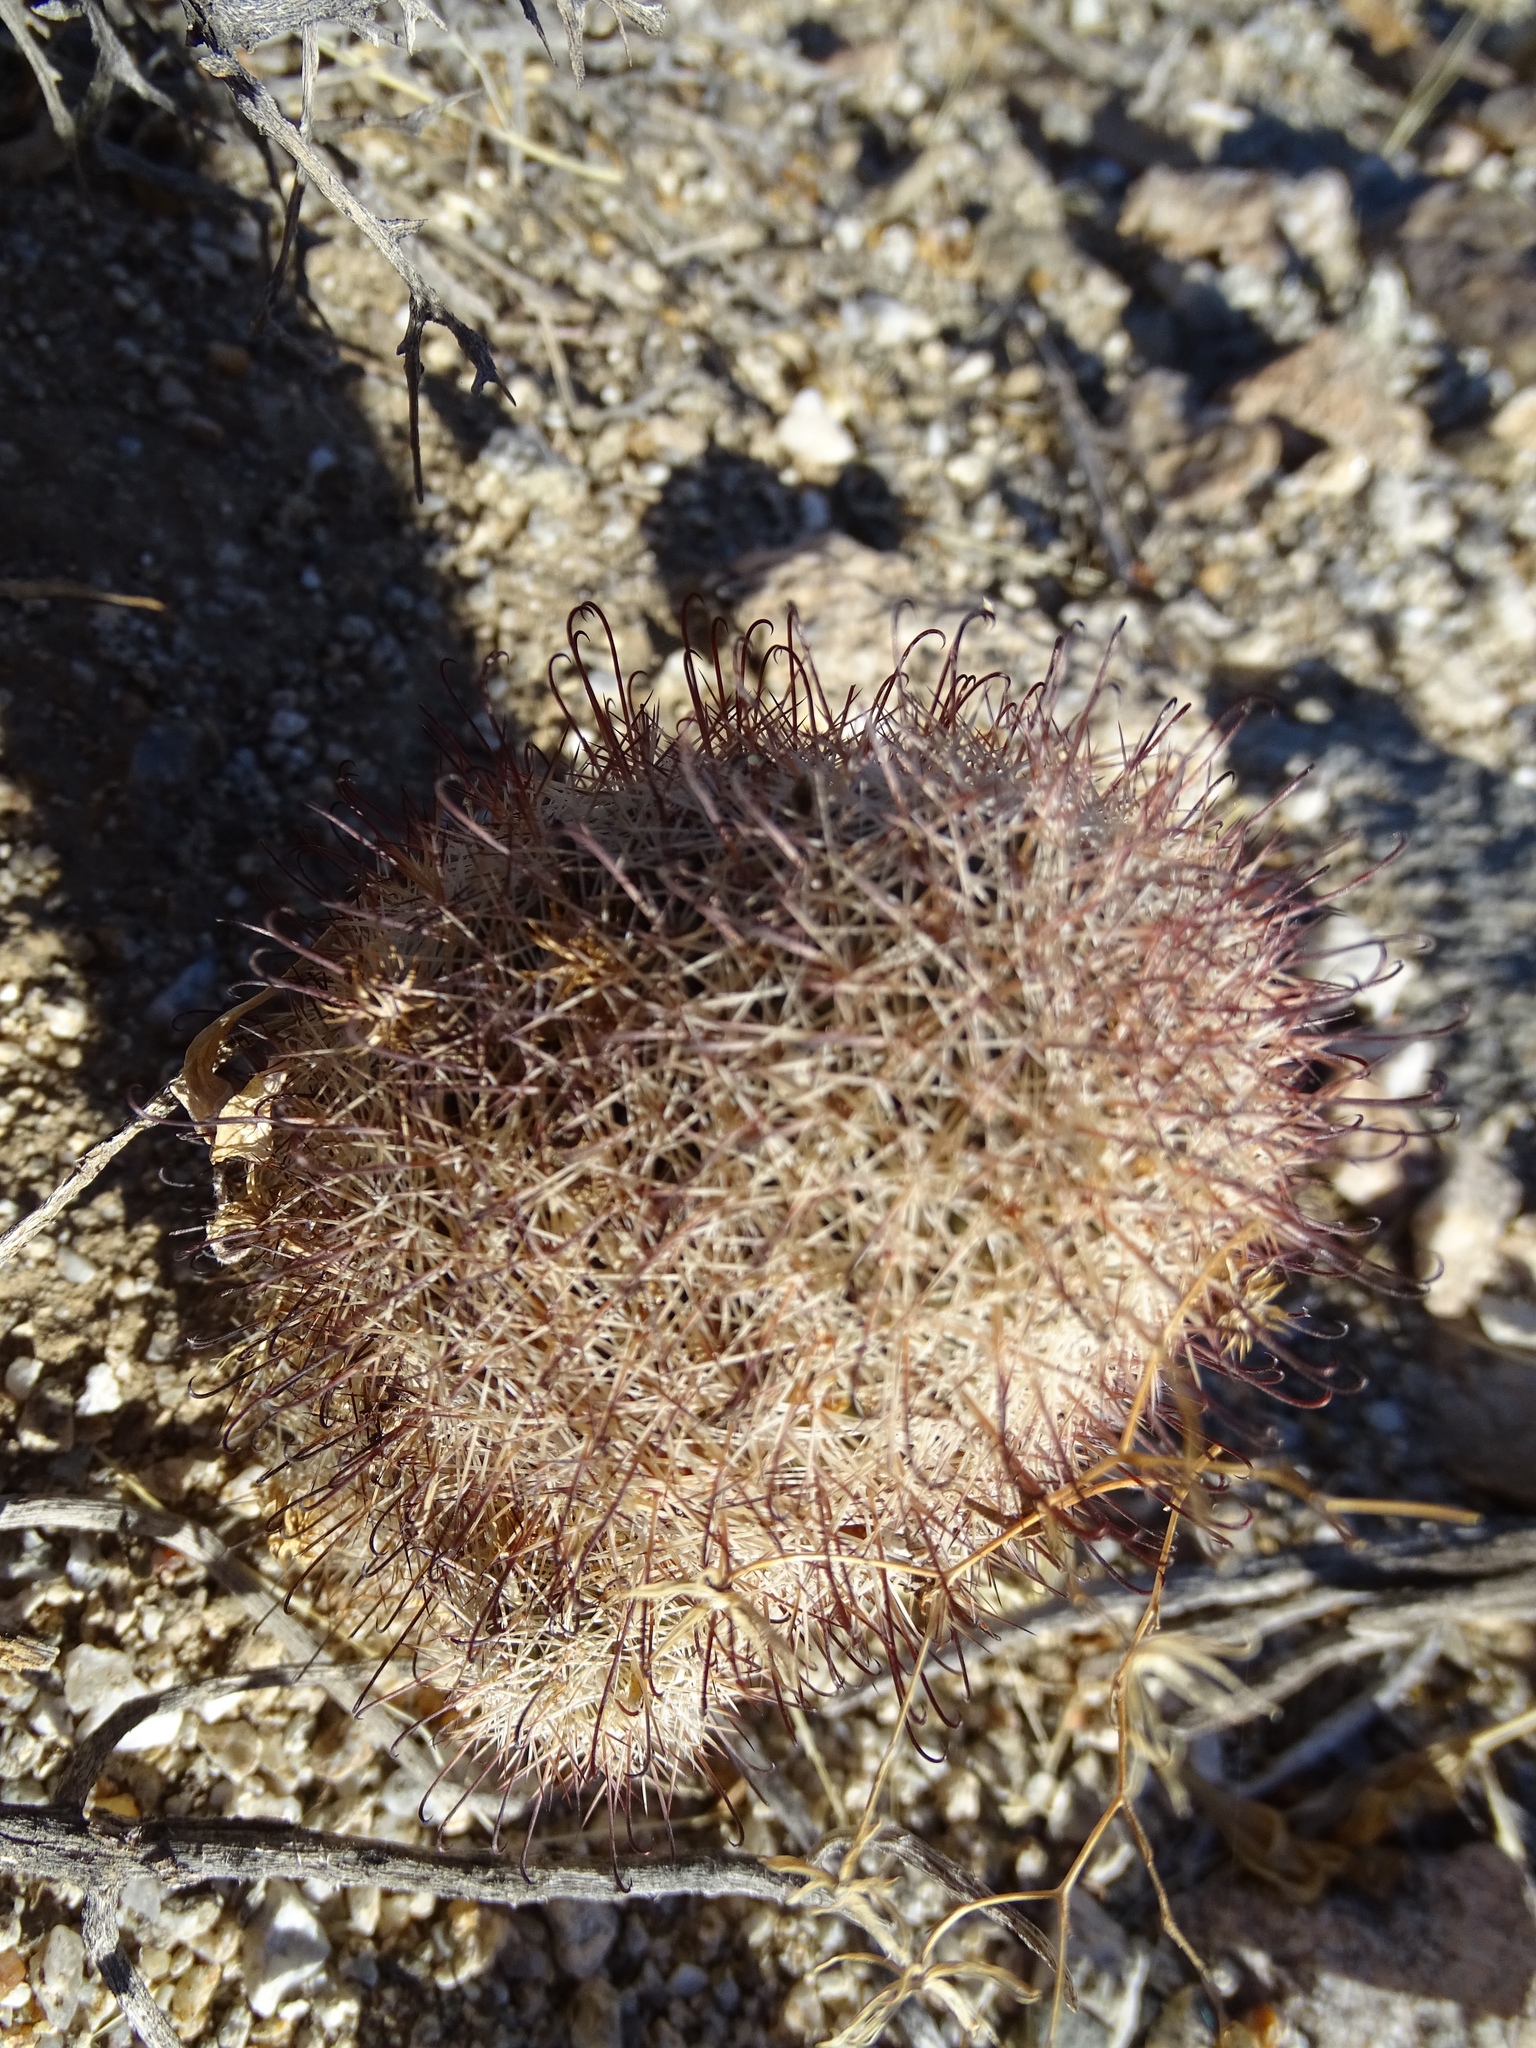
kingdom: Plantae
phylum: Tracheophyta
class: Magnoliopsida
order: Caryophyllales
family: Cactaceae
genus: Cochemiea
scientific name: Cochemiea dioica
